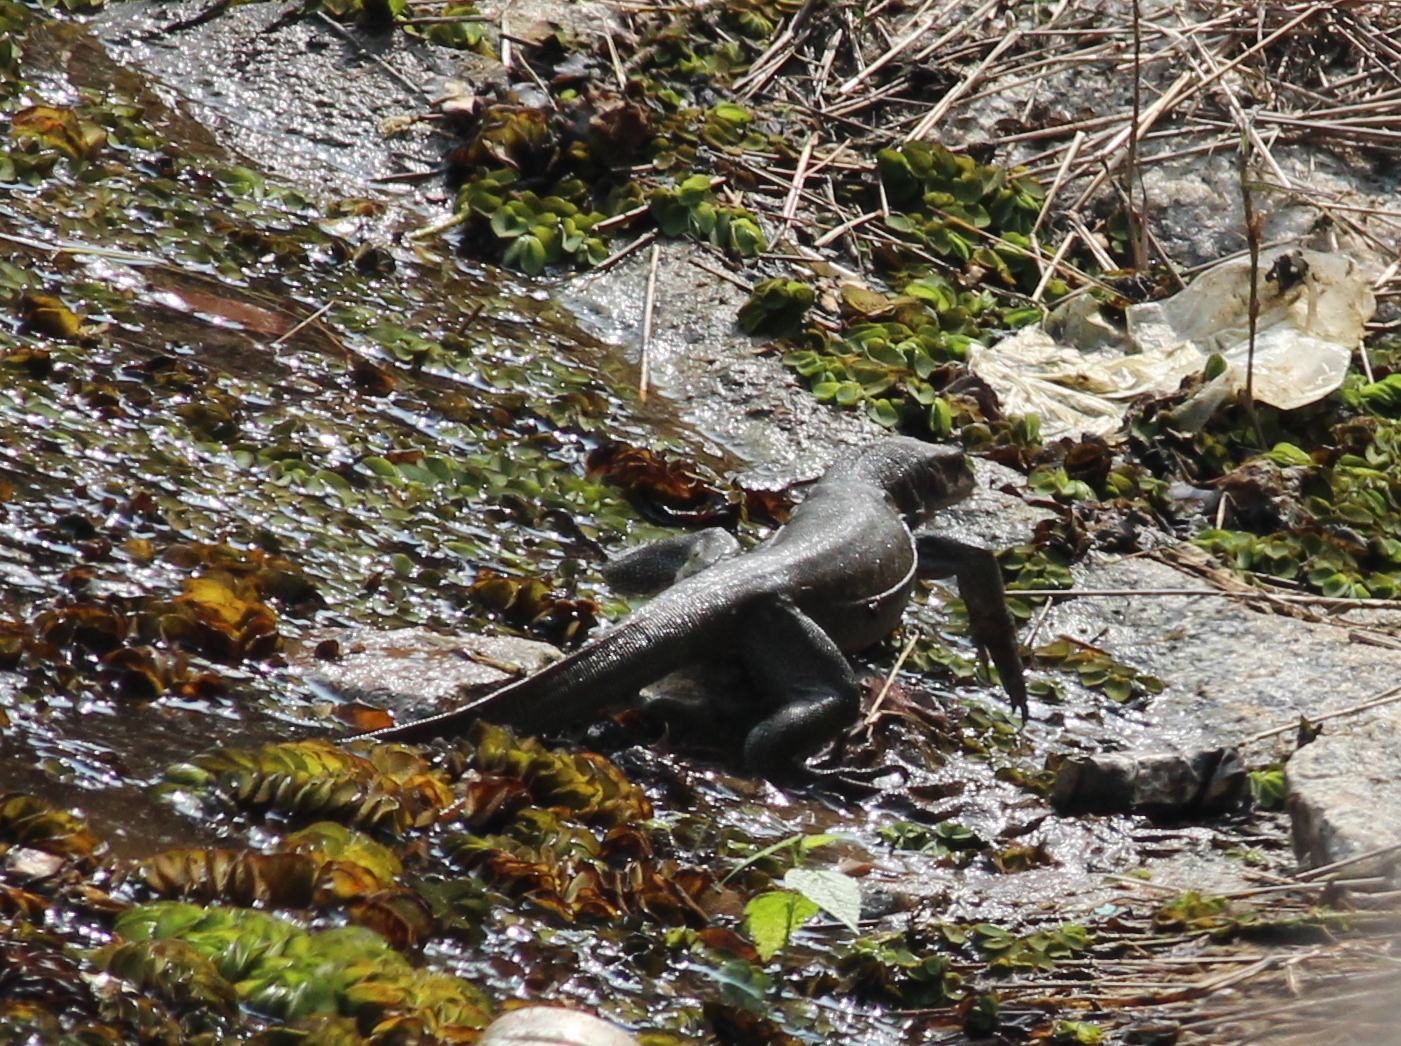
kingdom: Animalia
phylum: Chordata
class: Squamata
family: Varanidae
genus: Varanus
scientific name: Varanus bengalensis
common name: Bengal monitor
